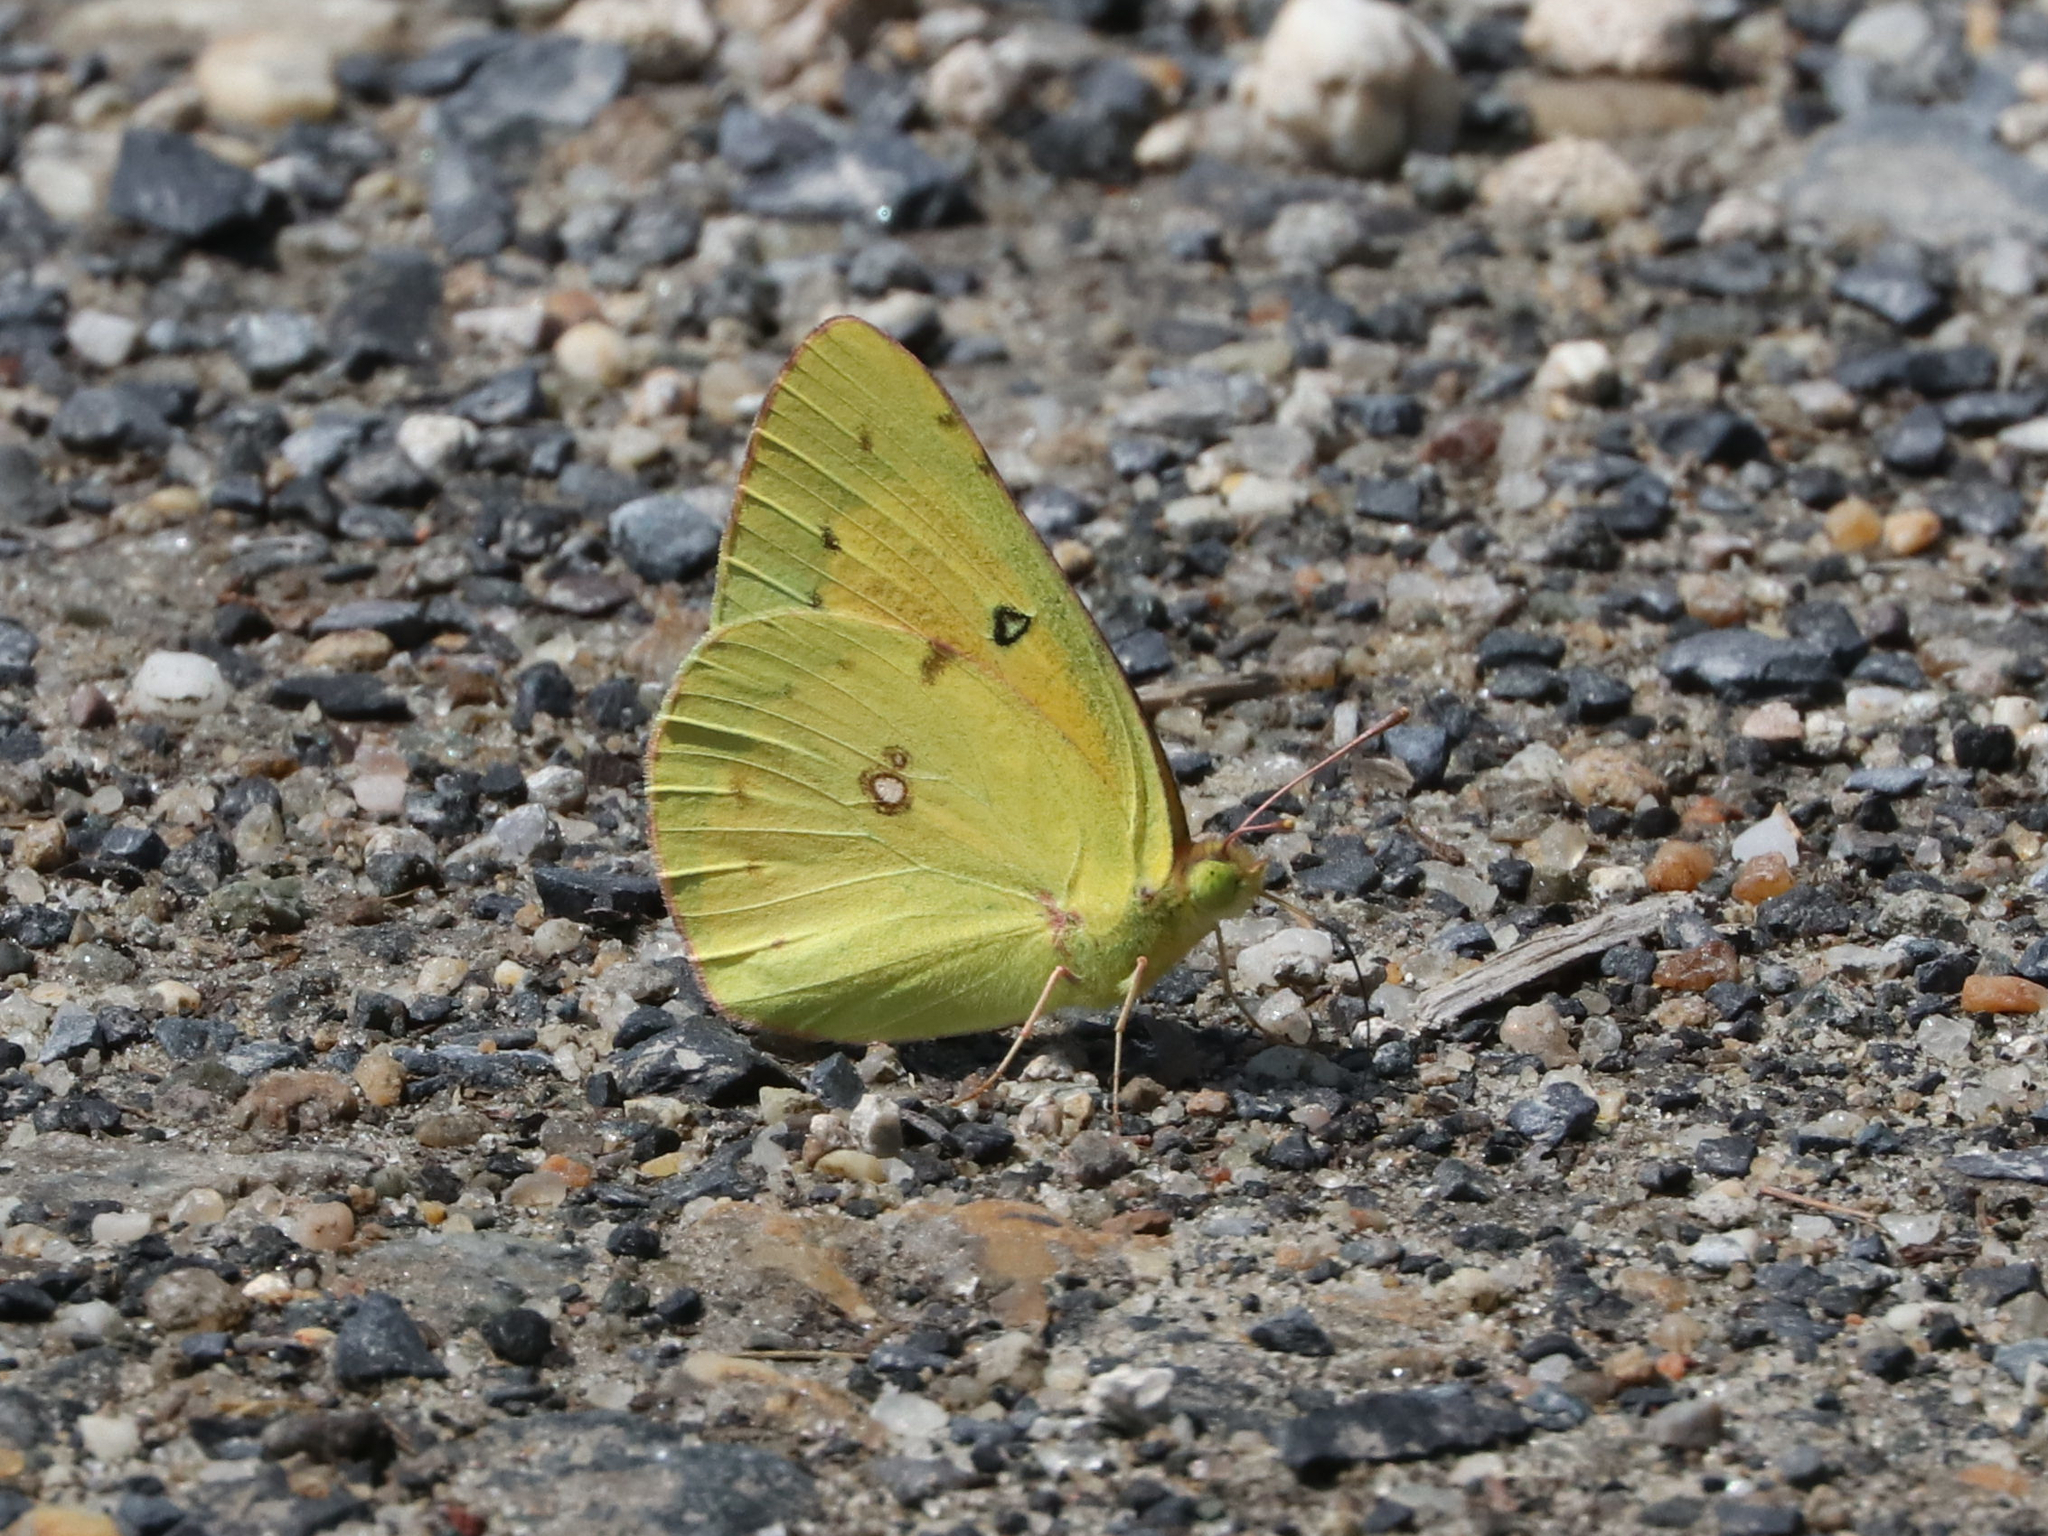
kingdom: Animalia
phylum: Arthropoda
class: Insecta
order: Lepidoptera
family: Pieridae
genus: Colias
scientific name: Colias eurytheme
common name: Alfalfa butterfly
